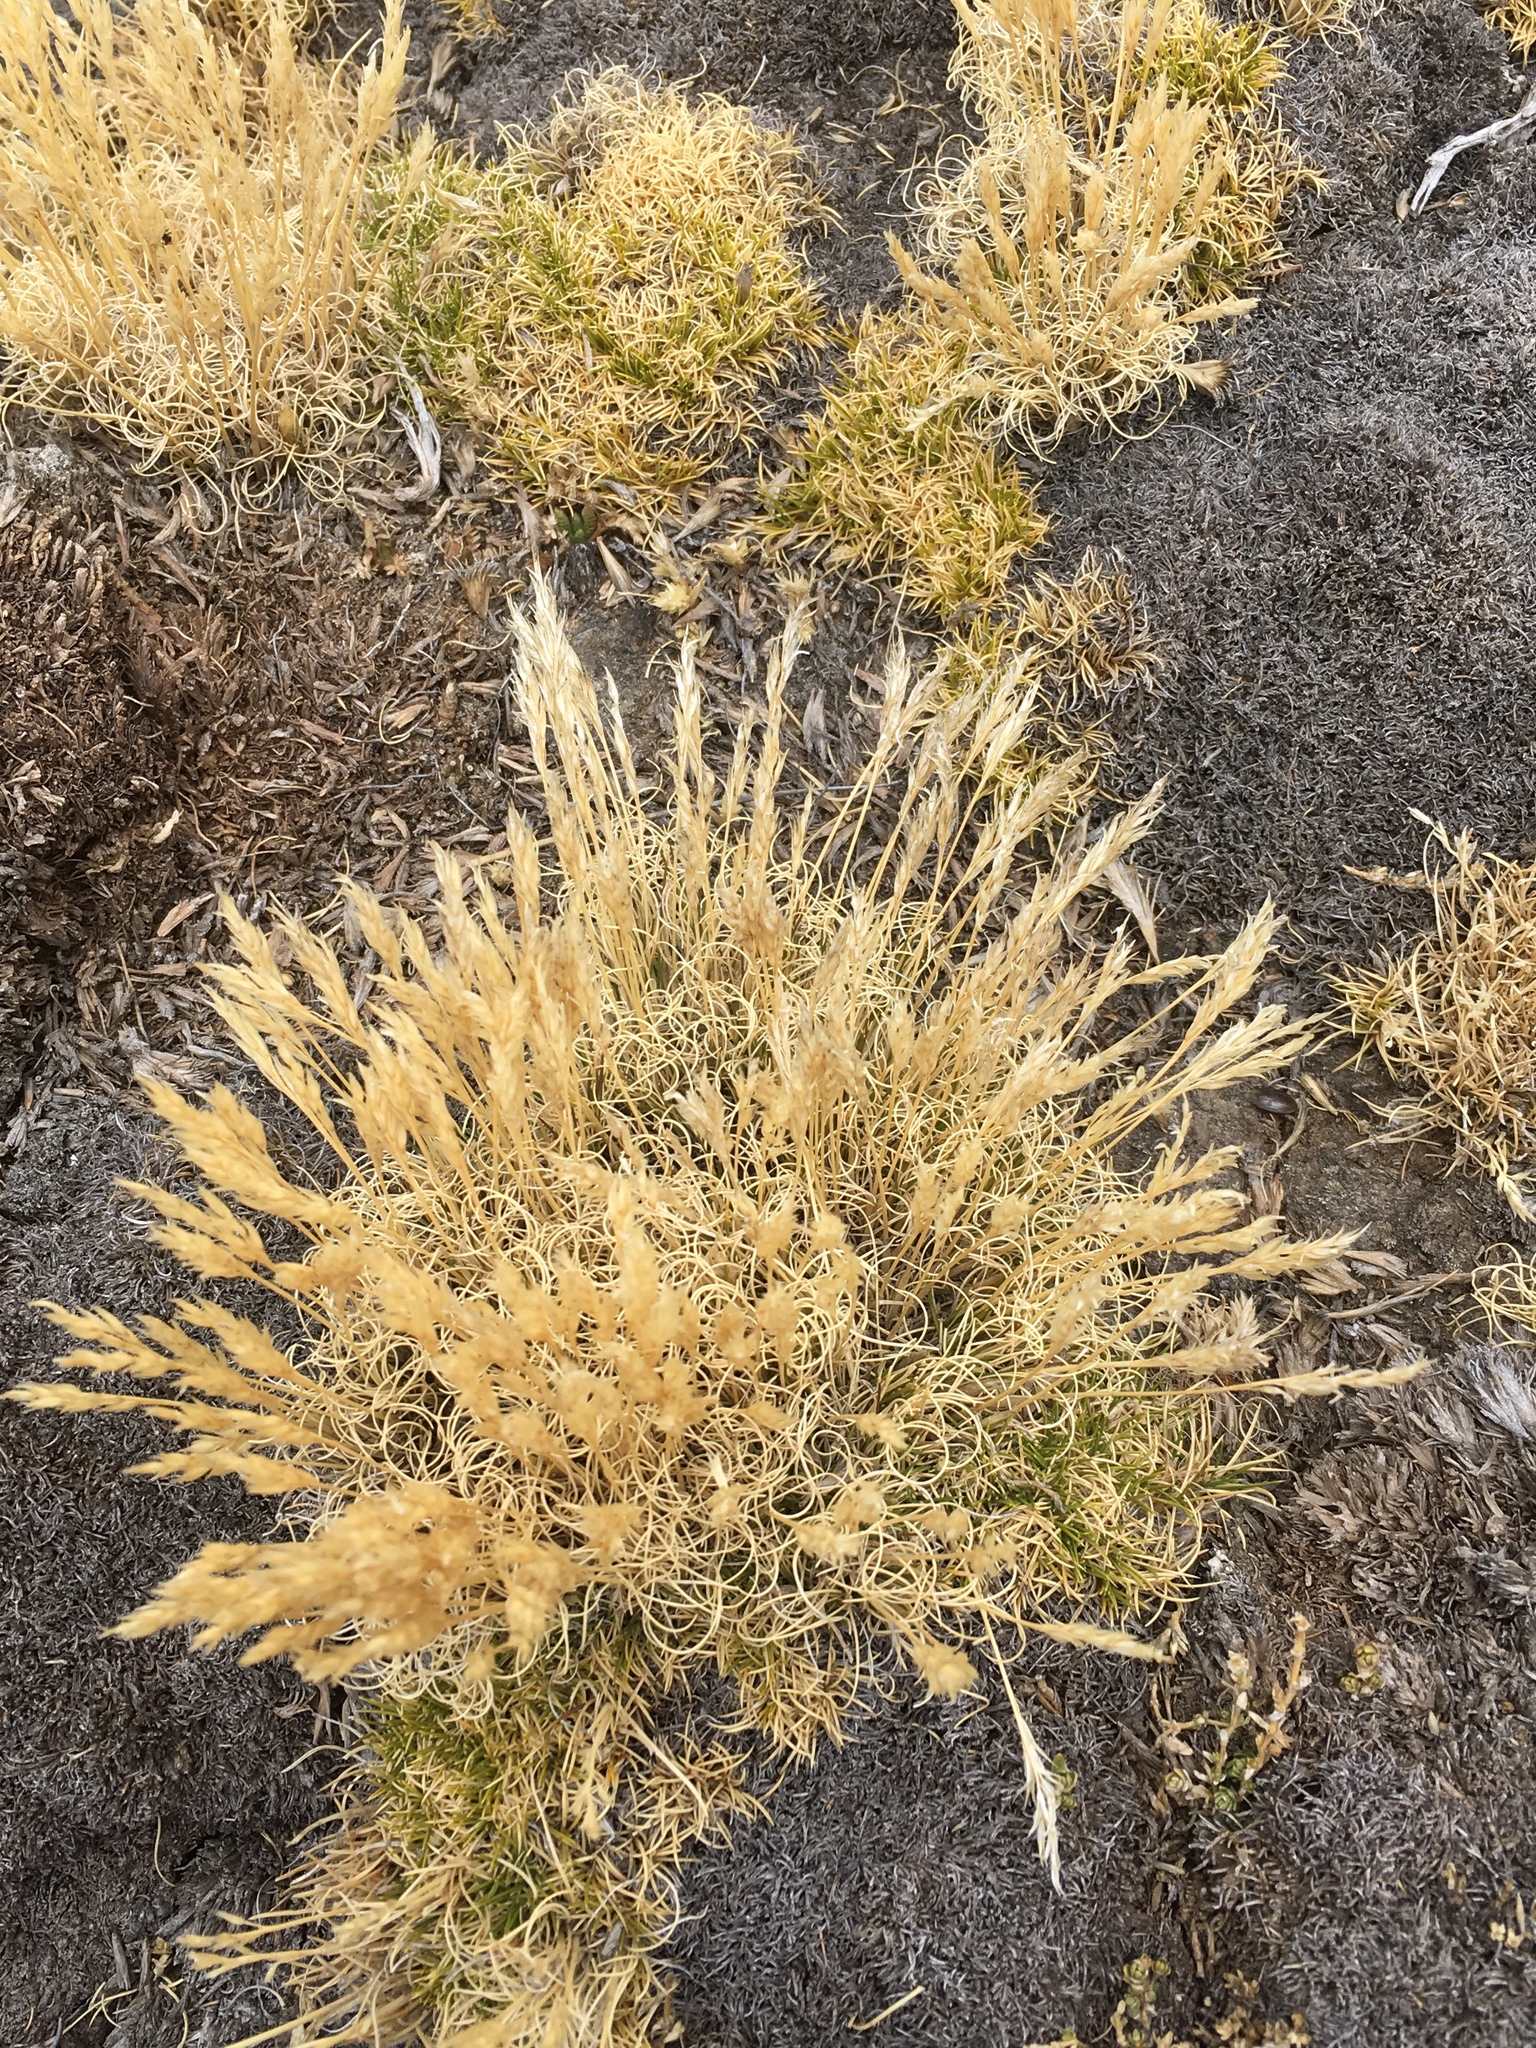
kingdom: Plantae
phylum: Tracheophyta
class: Liliopsida
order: Poales
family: Poaceae
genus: Cinnagrostis
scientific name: Cinnagrostis vicunarum
